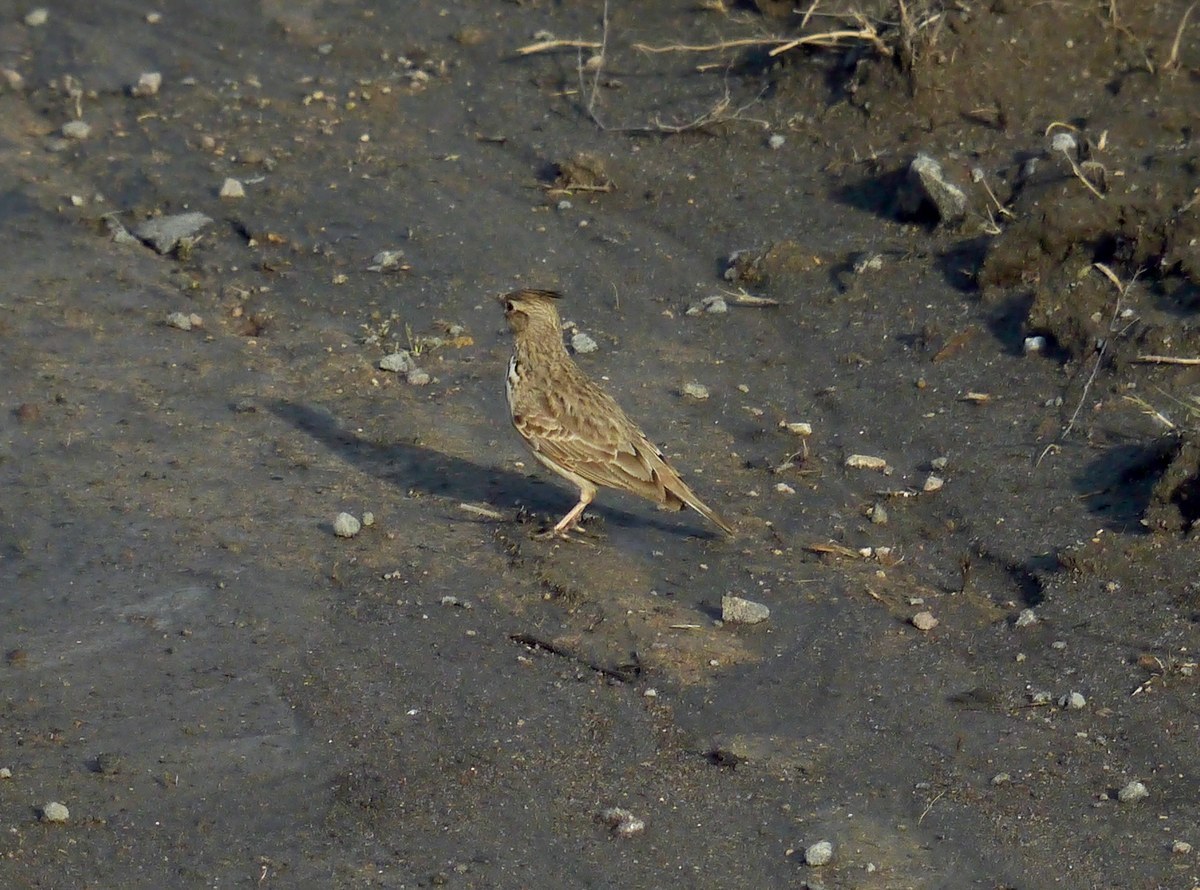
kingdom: Animalia
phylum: Chordata
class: Aves
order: Passeriformes
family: Alaudidae
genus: Galerida
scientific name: Galerida cristata
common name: Crested lark
